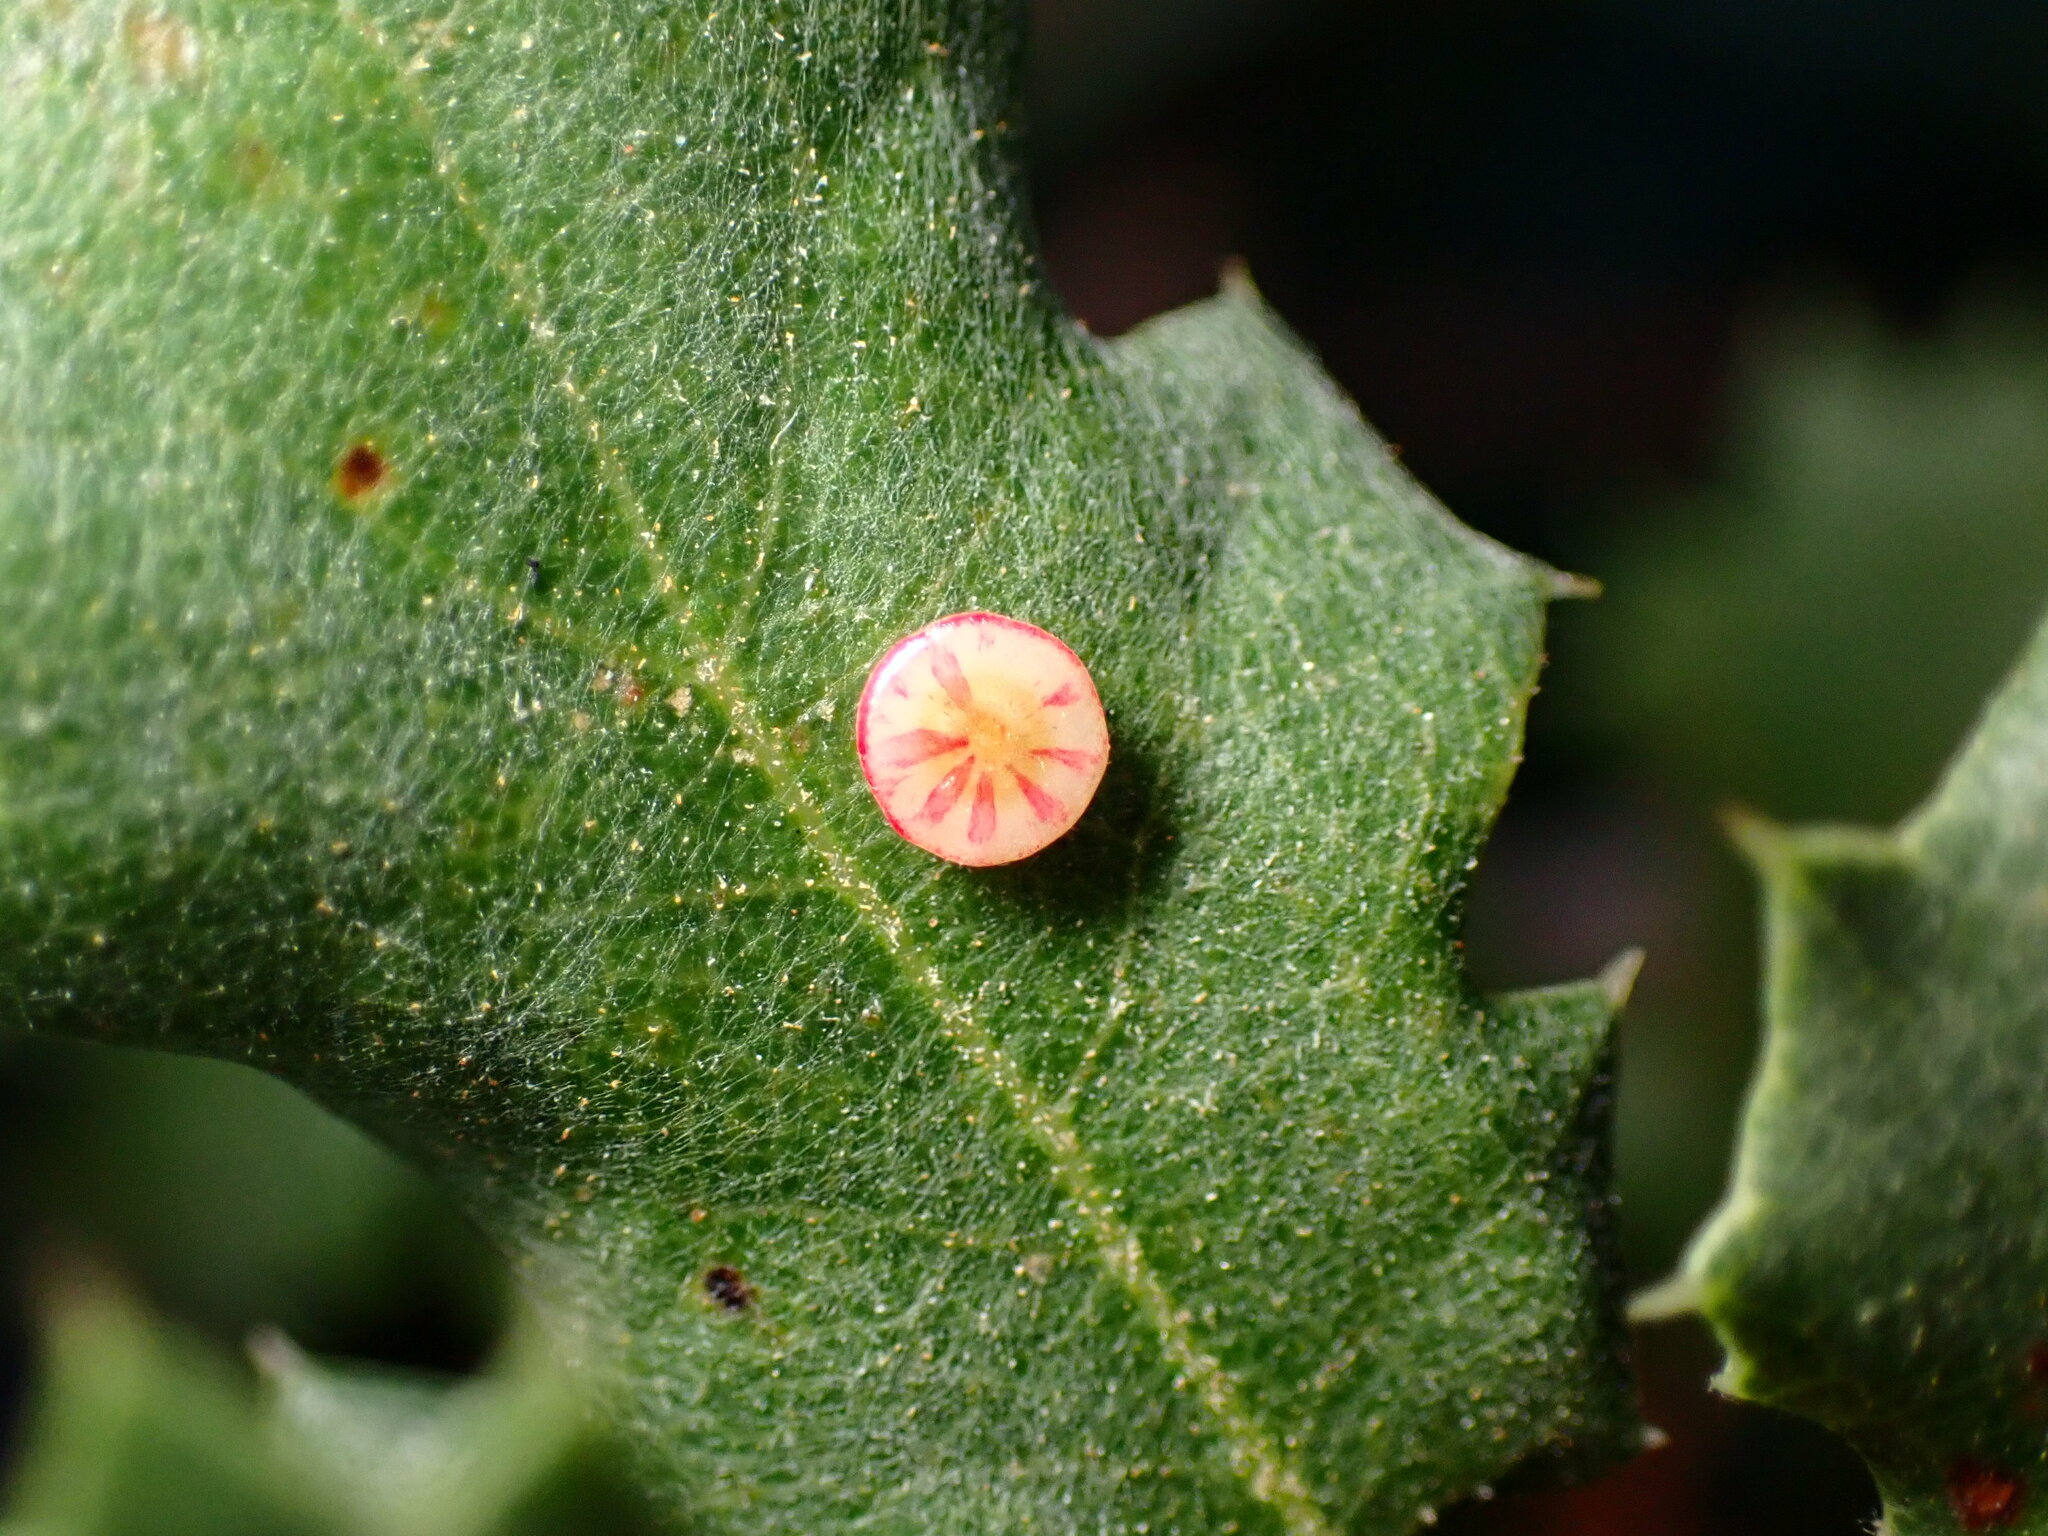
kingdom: Animalia
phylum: Arthropoda
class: Insecta
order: Hymenoptera
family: Cynipidae
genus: Andricus
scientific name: Andricus
